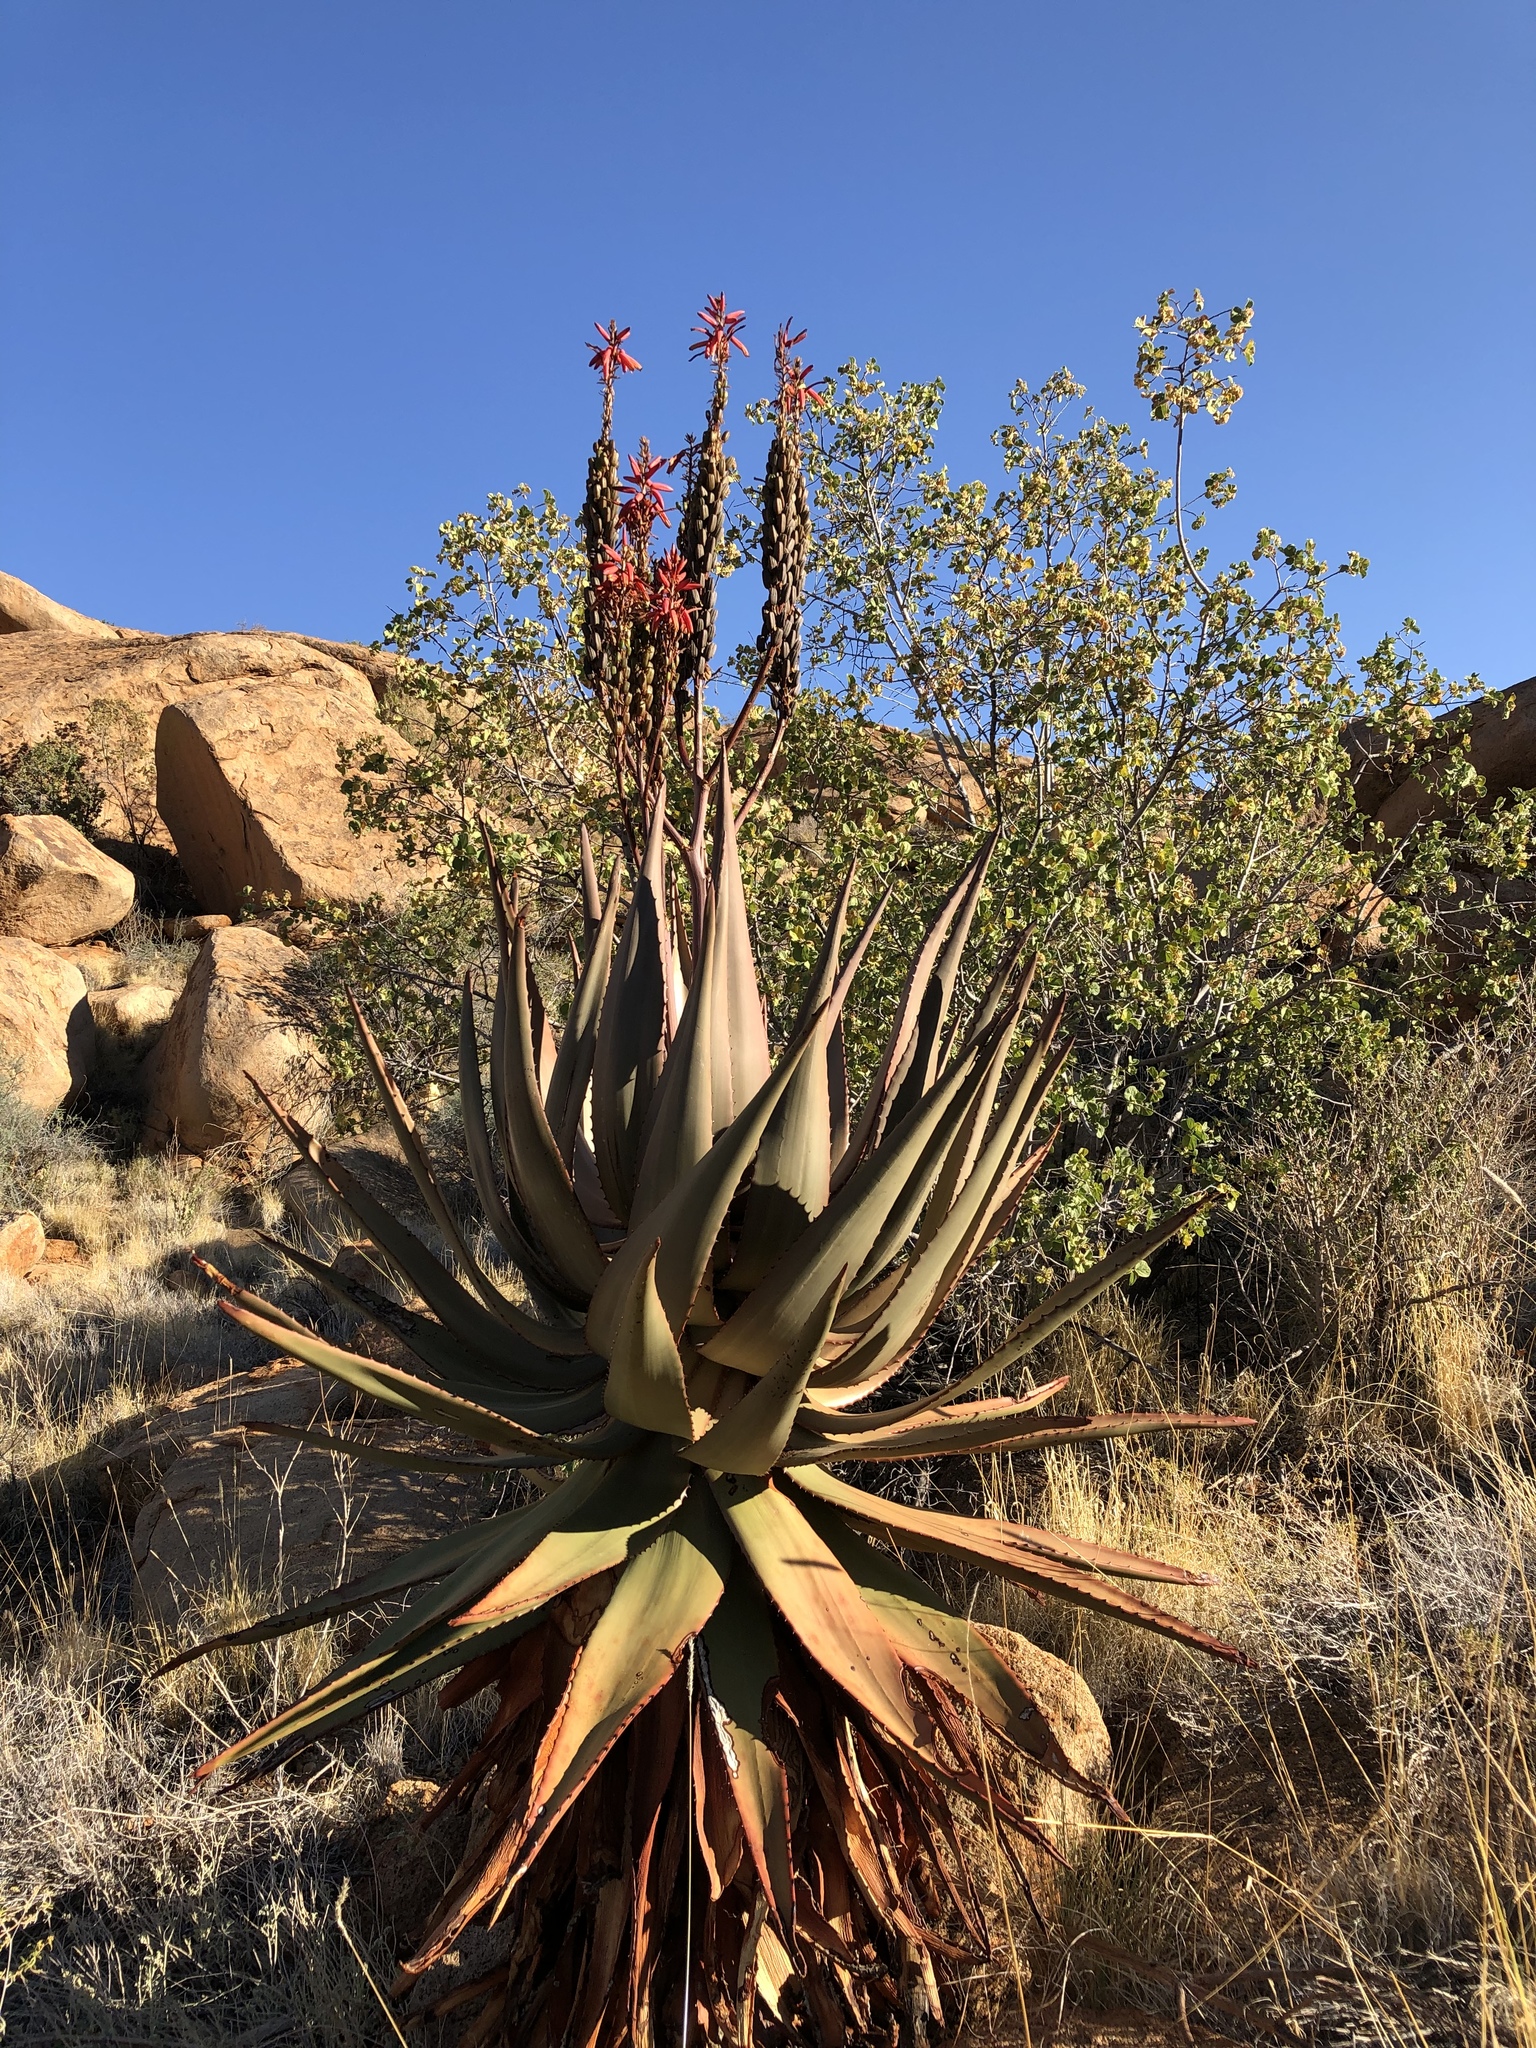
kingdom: Plantae
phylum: Tracheophyta
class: Liliopsida
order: Asparagales
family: Asphodelaceae
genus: Aloe
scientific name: Aloe littoralis
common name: Luanda tree aloe
